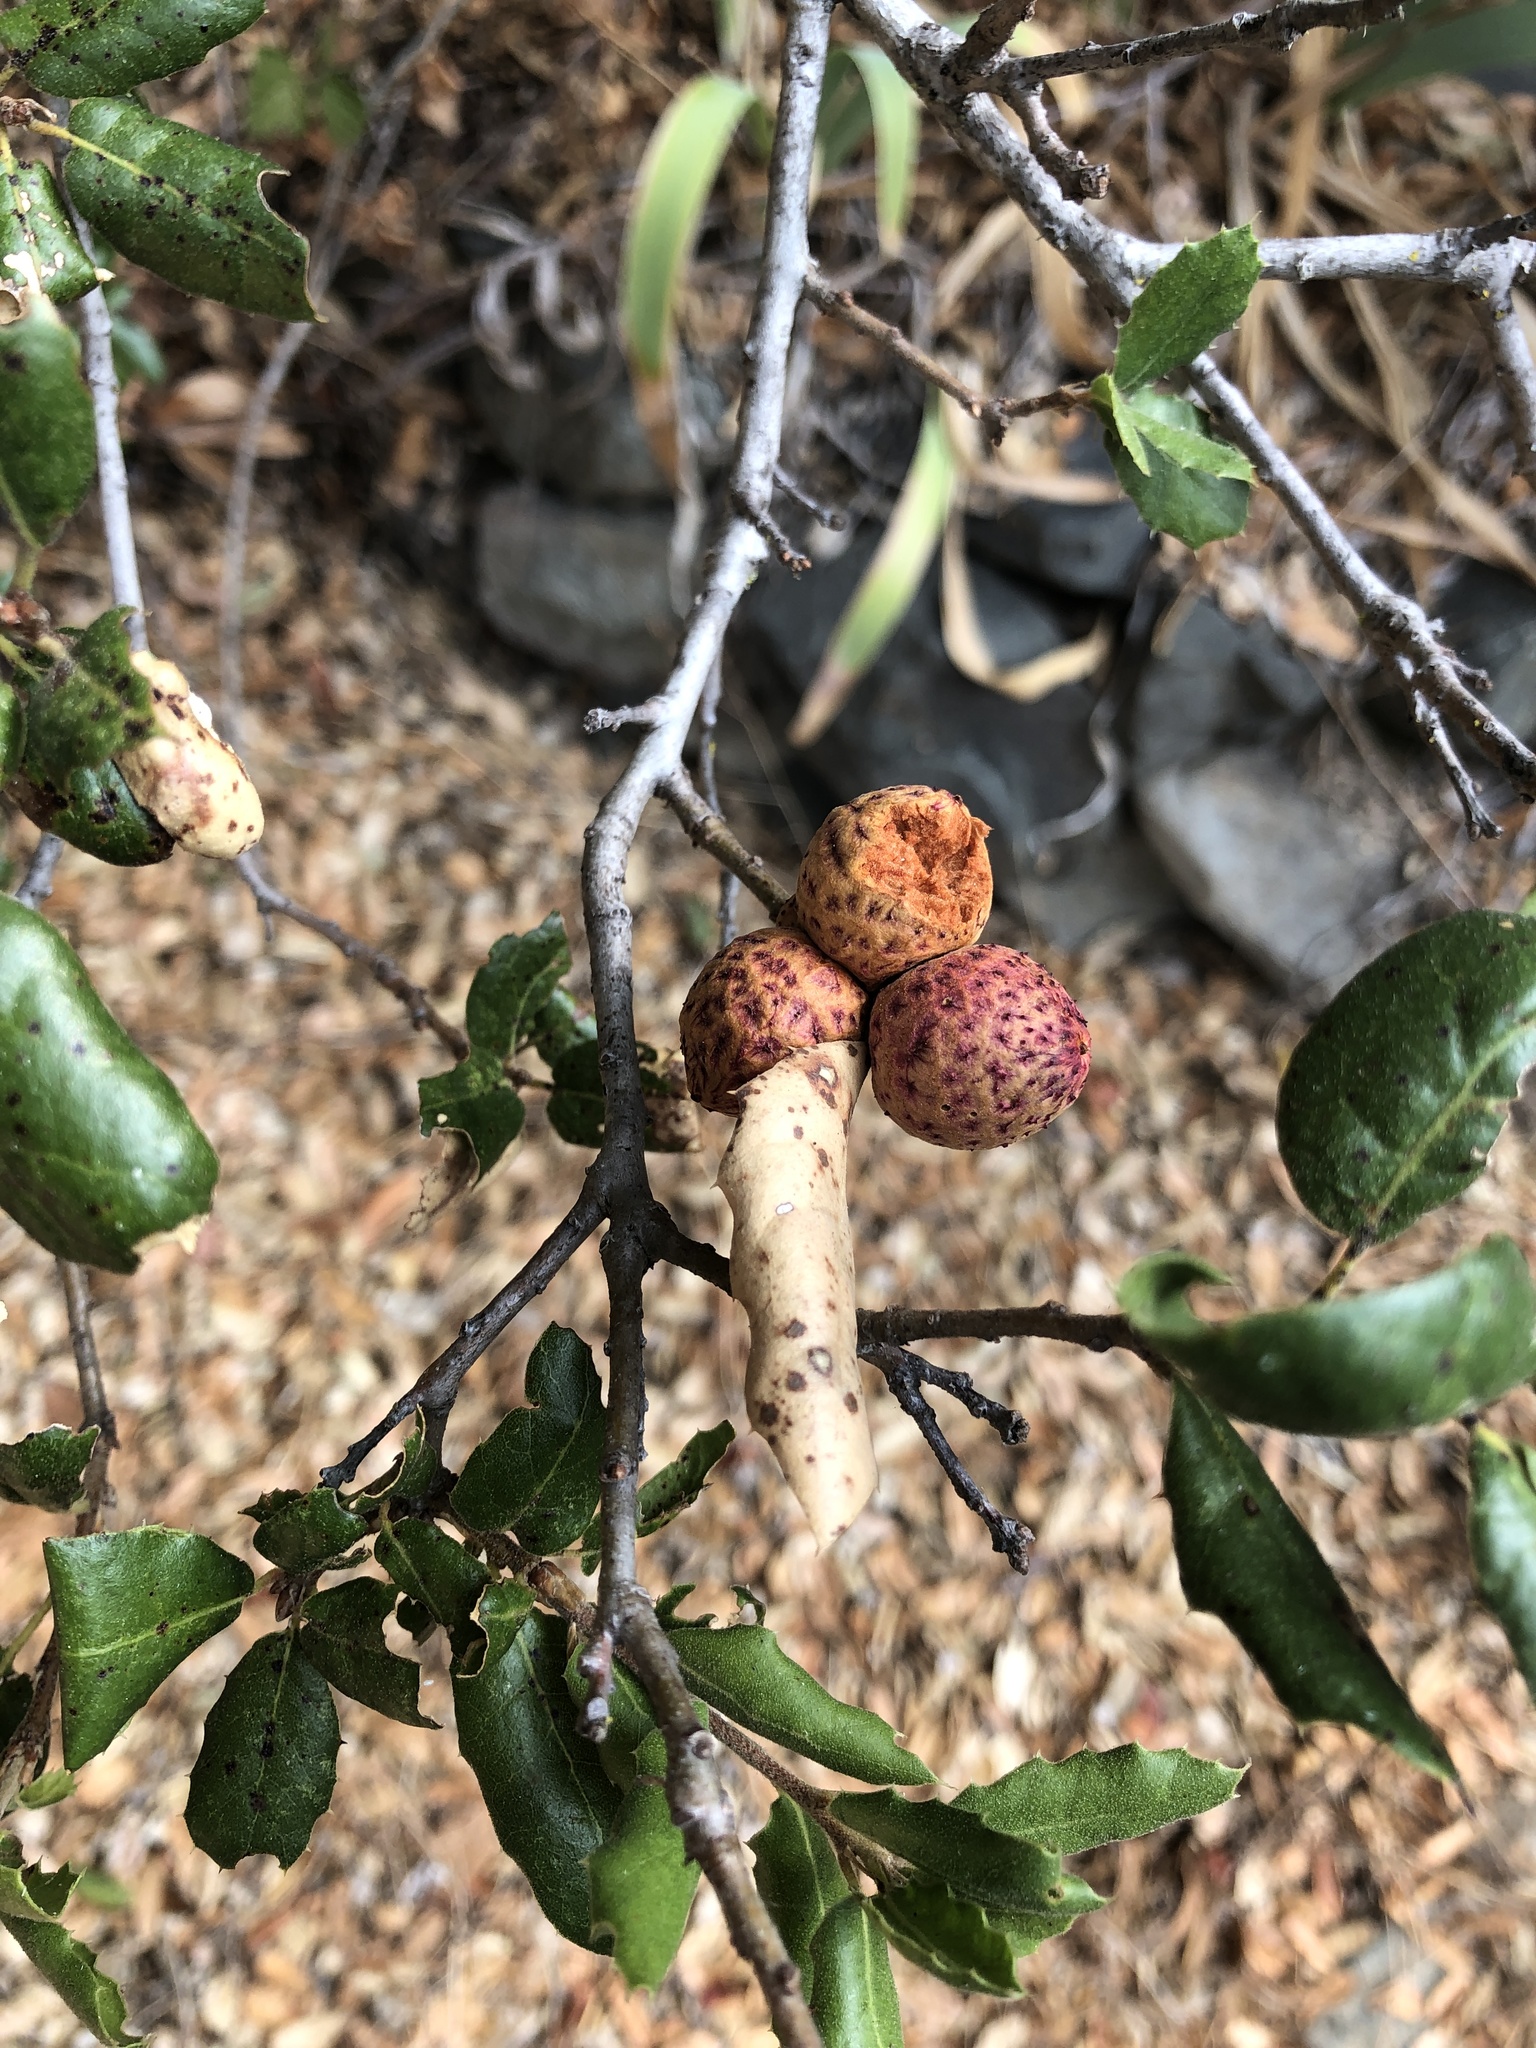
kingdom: Animalia
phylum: Arthropoda
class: Insecta
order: Hymenoptera
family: Cynipidae
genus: Amphibolips
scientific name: Amphibolips quercuspomiformis
